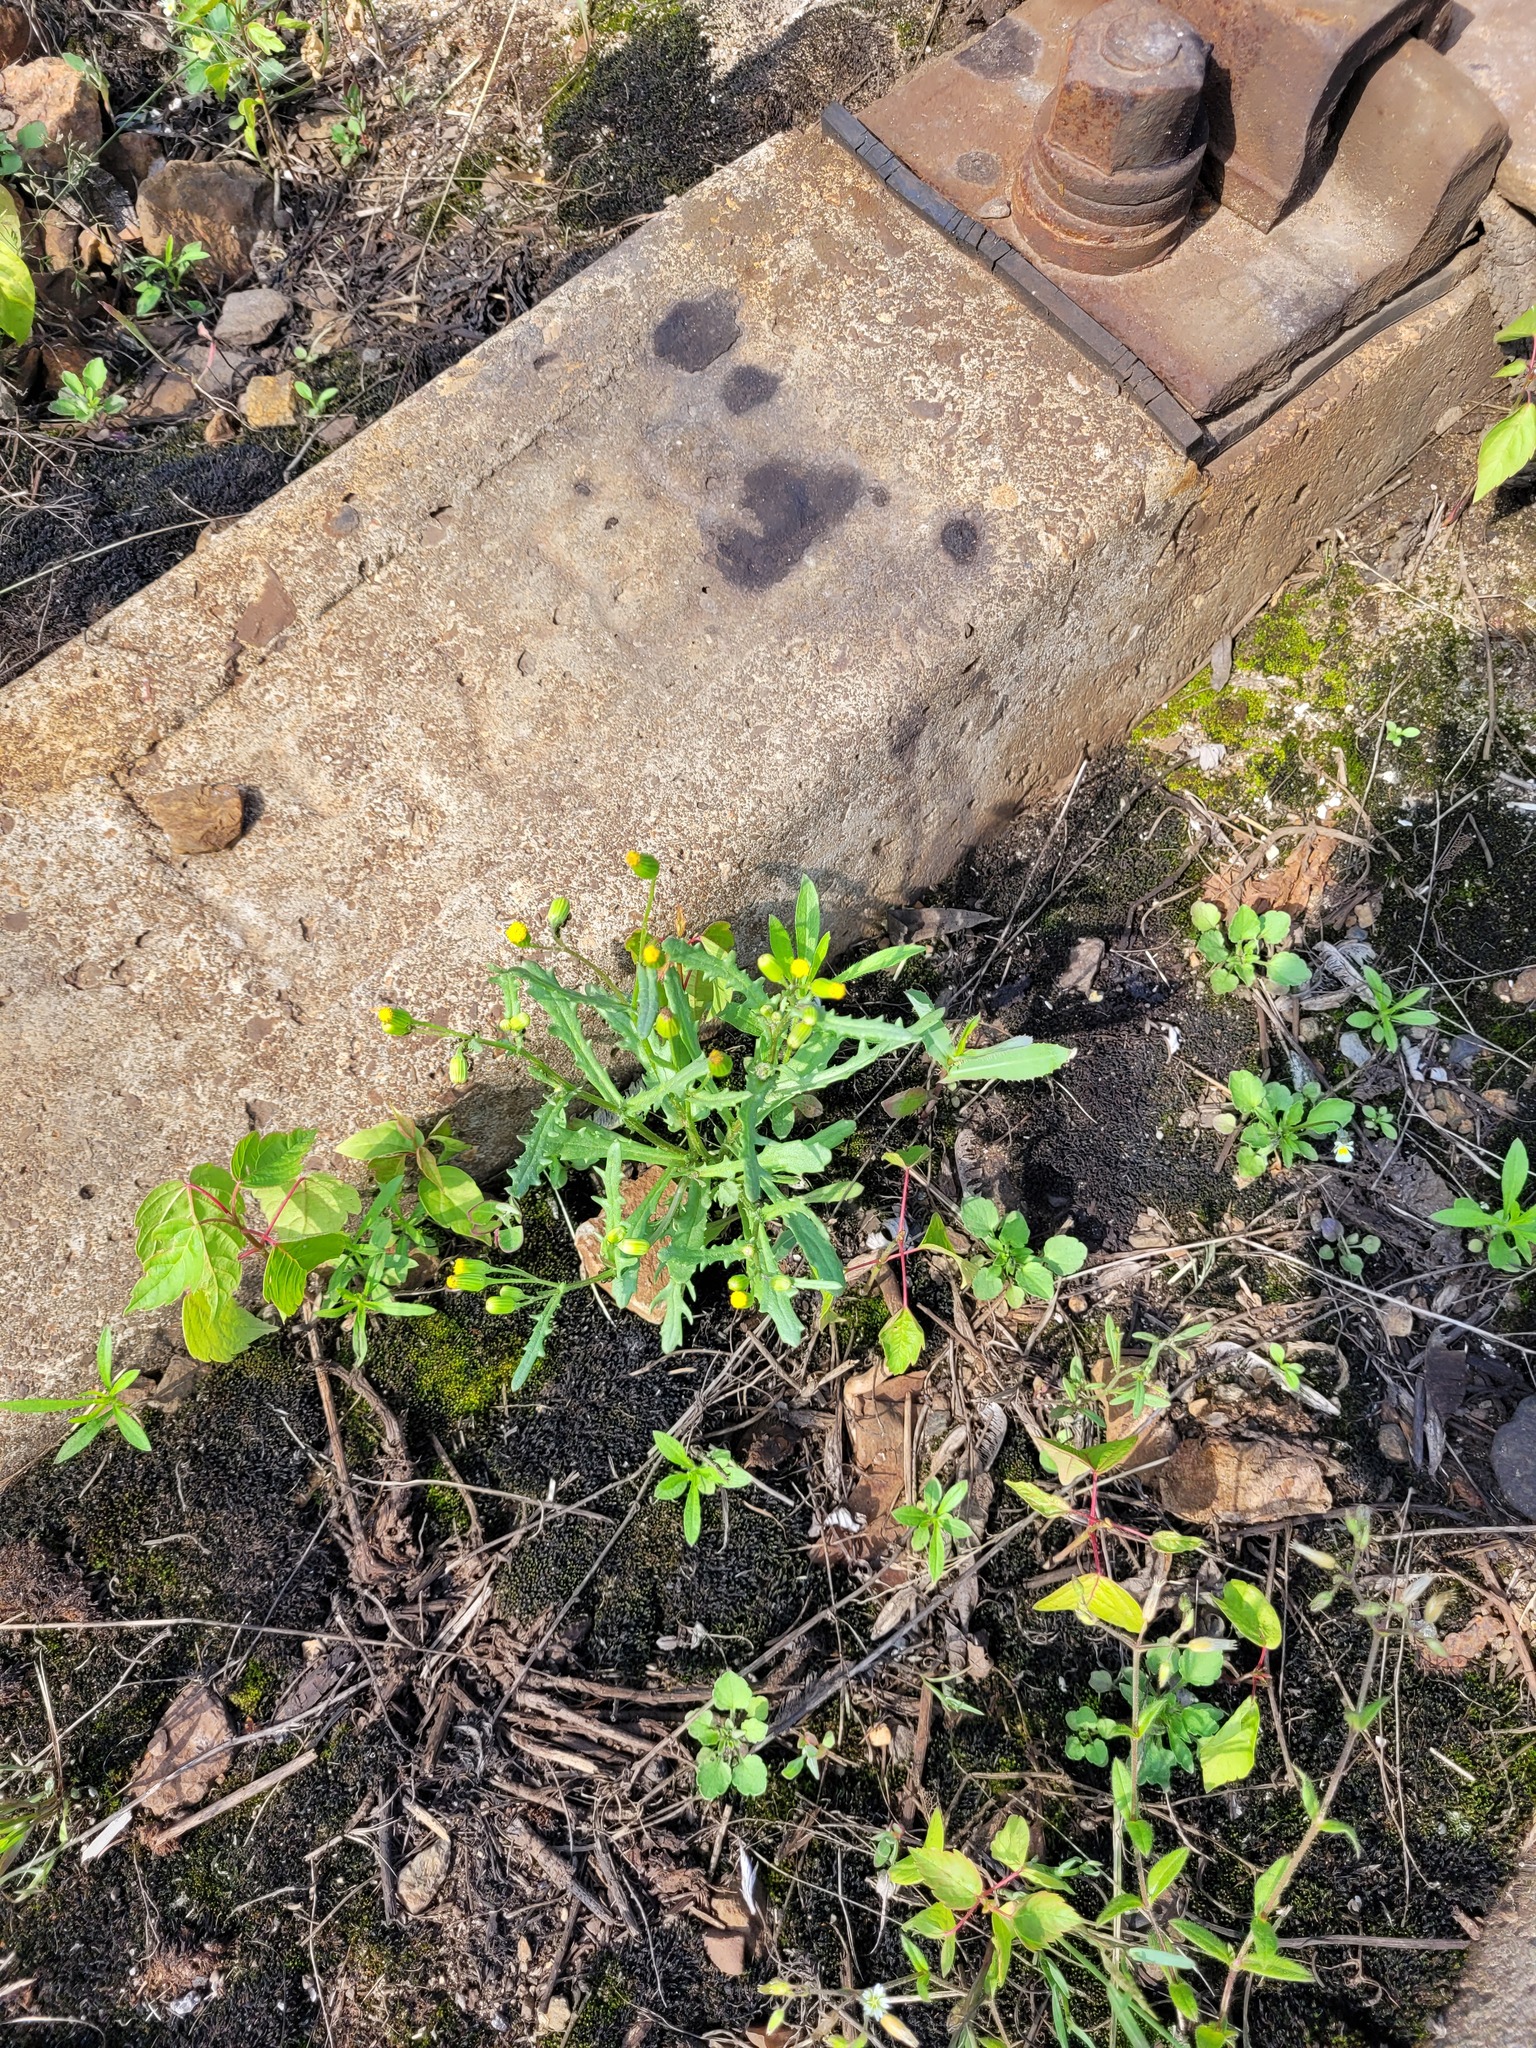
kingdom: Plantae
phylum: Tracheophyta
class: Magnoliopsida
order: Asterales
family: Asteraceae
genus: Senecio
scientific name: Senecio dubitabilis
